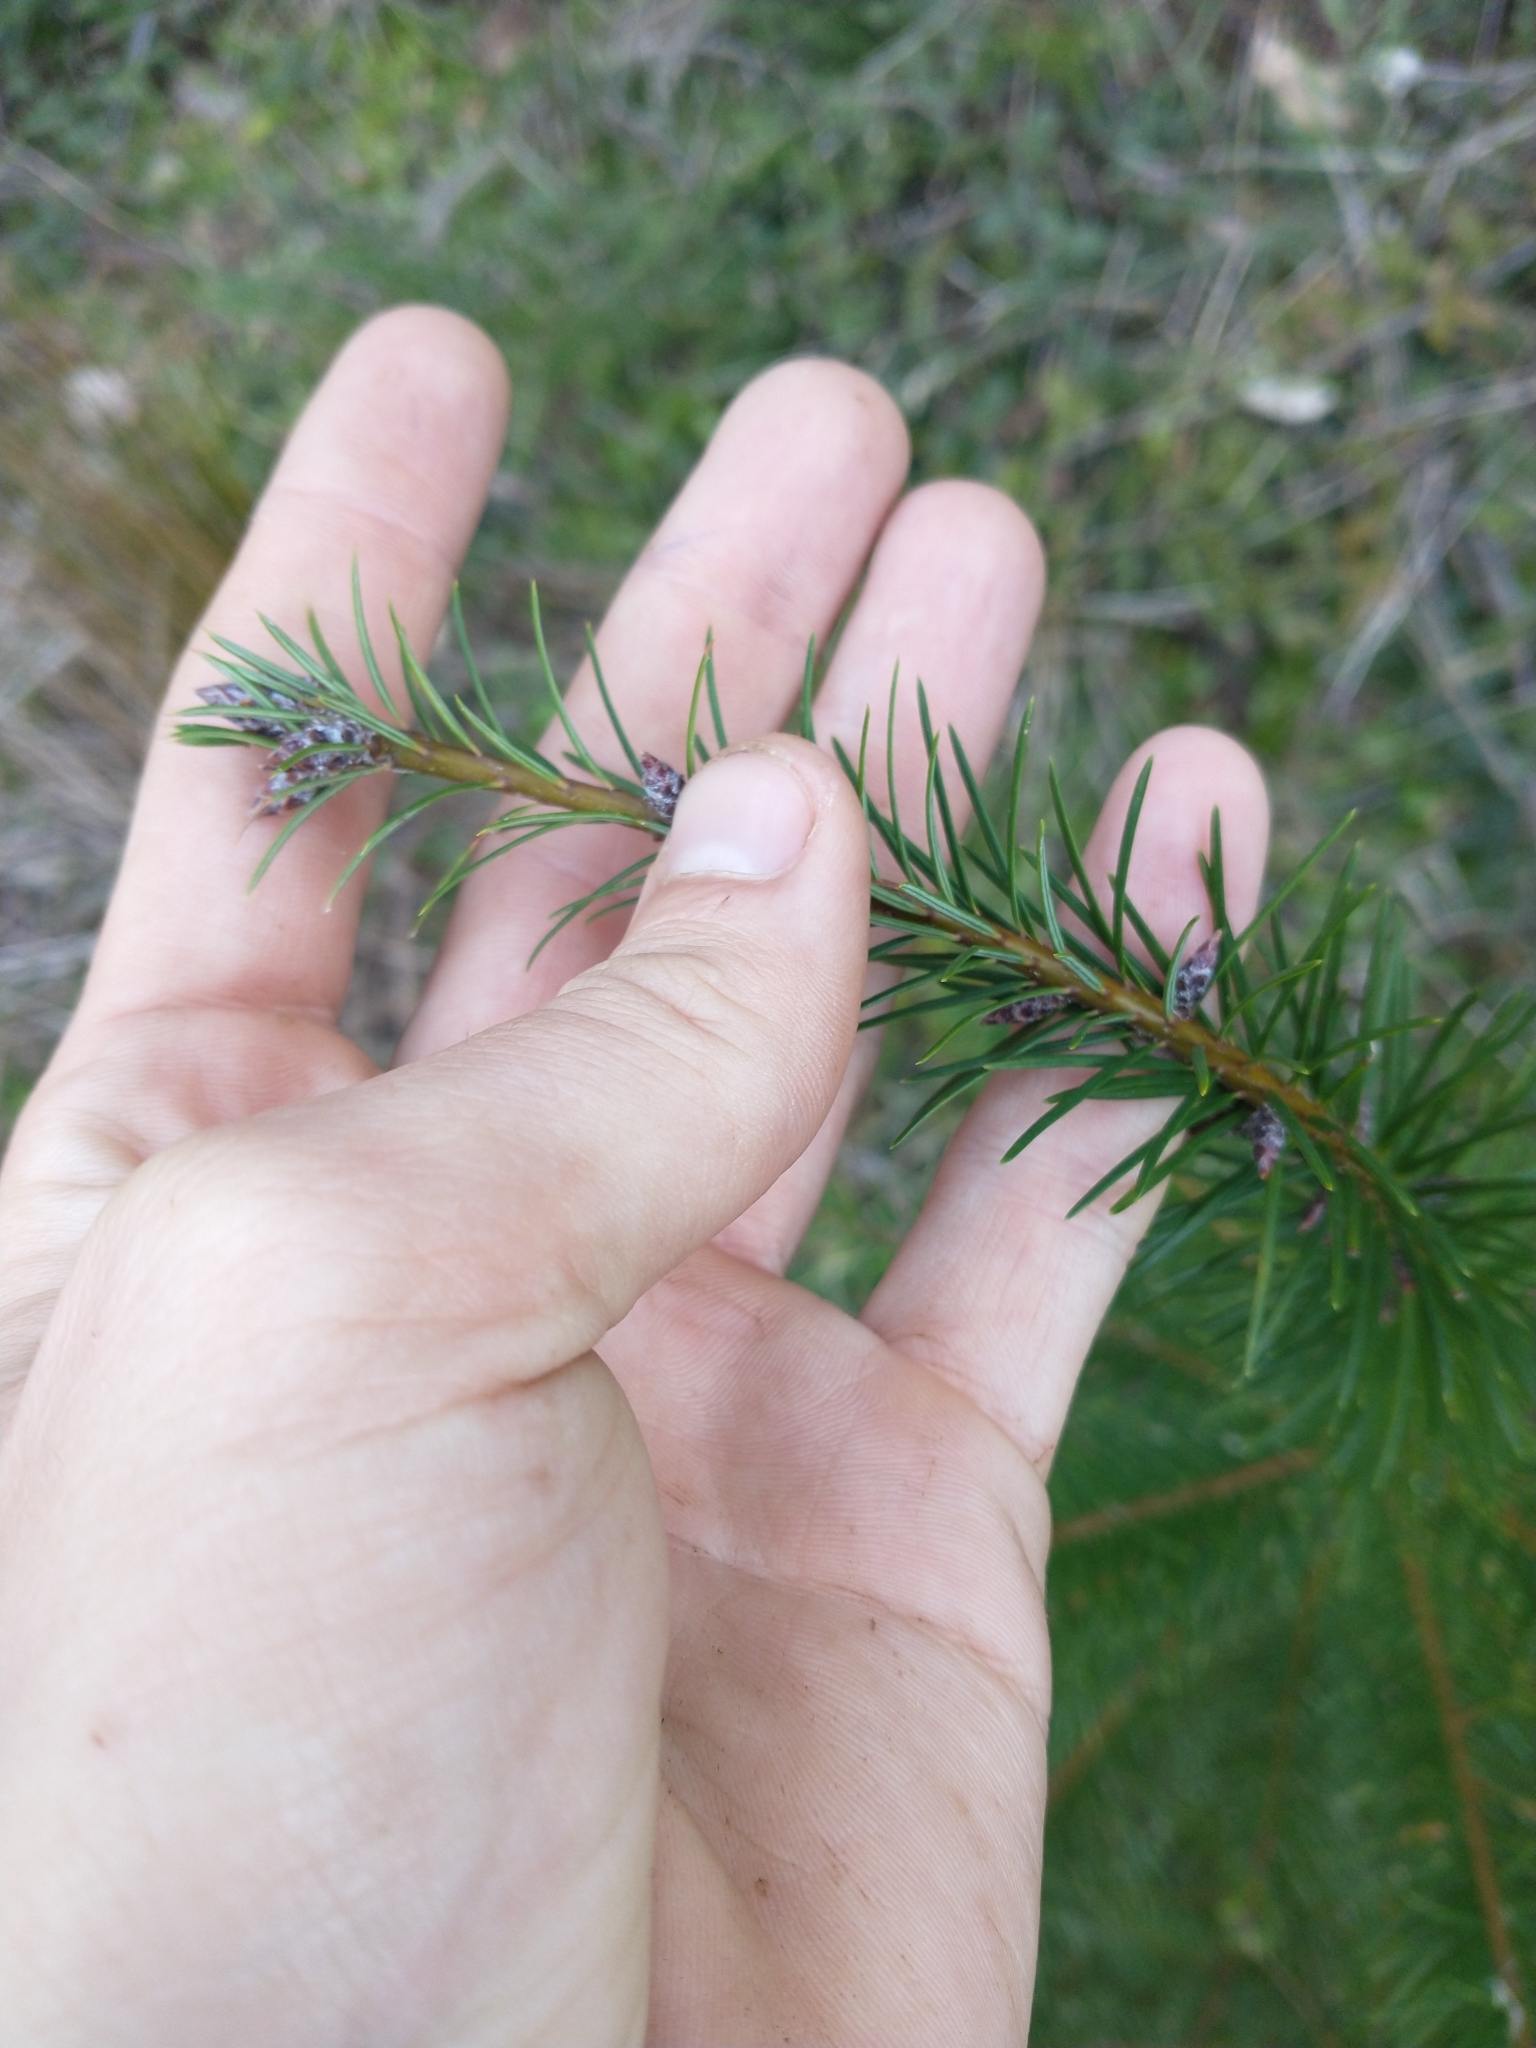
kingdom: Plantae
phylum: Tracheophyta
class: Pinopsida
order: Pinales
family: Pinaceae
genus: Pseudotsuga
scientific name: Pseudotsuga menziesii
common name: Douglas fir
